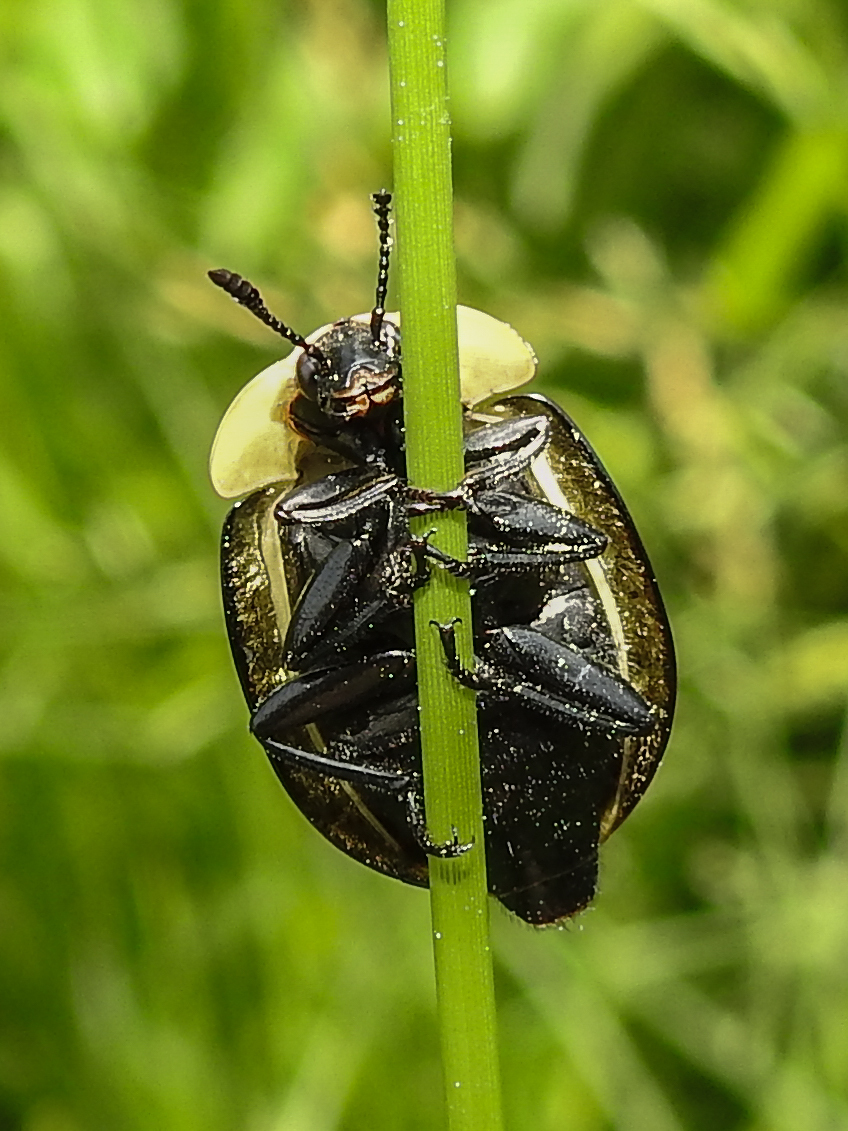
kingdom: Animalia
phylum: Arthropoda
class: Insecta
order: Coleoptera
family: Staphylinidae
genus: Necrophila
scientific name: Necrophila americana
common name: American carrion beetle
